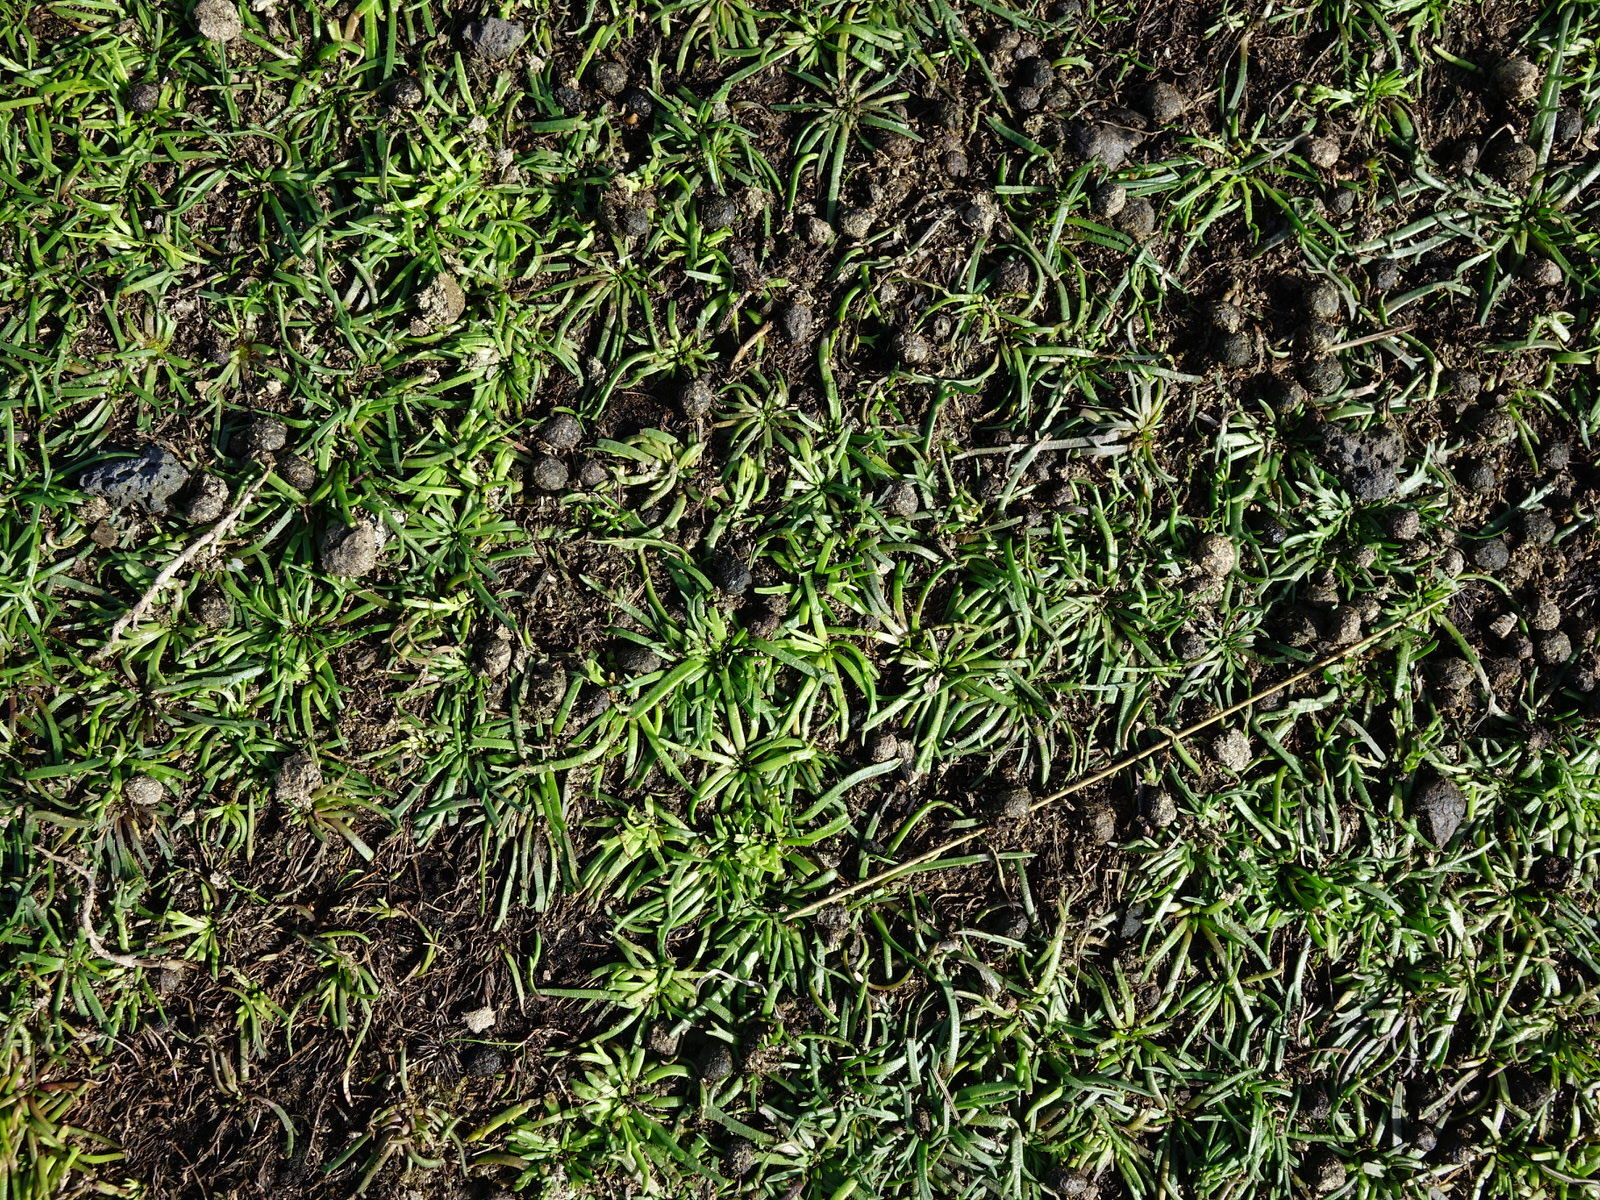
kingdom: Plantae
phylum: Tracheophyta
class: Magnoliopsida
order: Lamiales
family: Plantaginaceae
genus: Plantago
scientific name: Plantago coronopus
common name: Buck's-horn plantain
